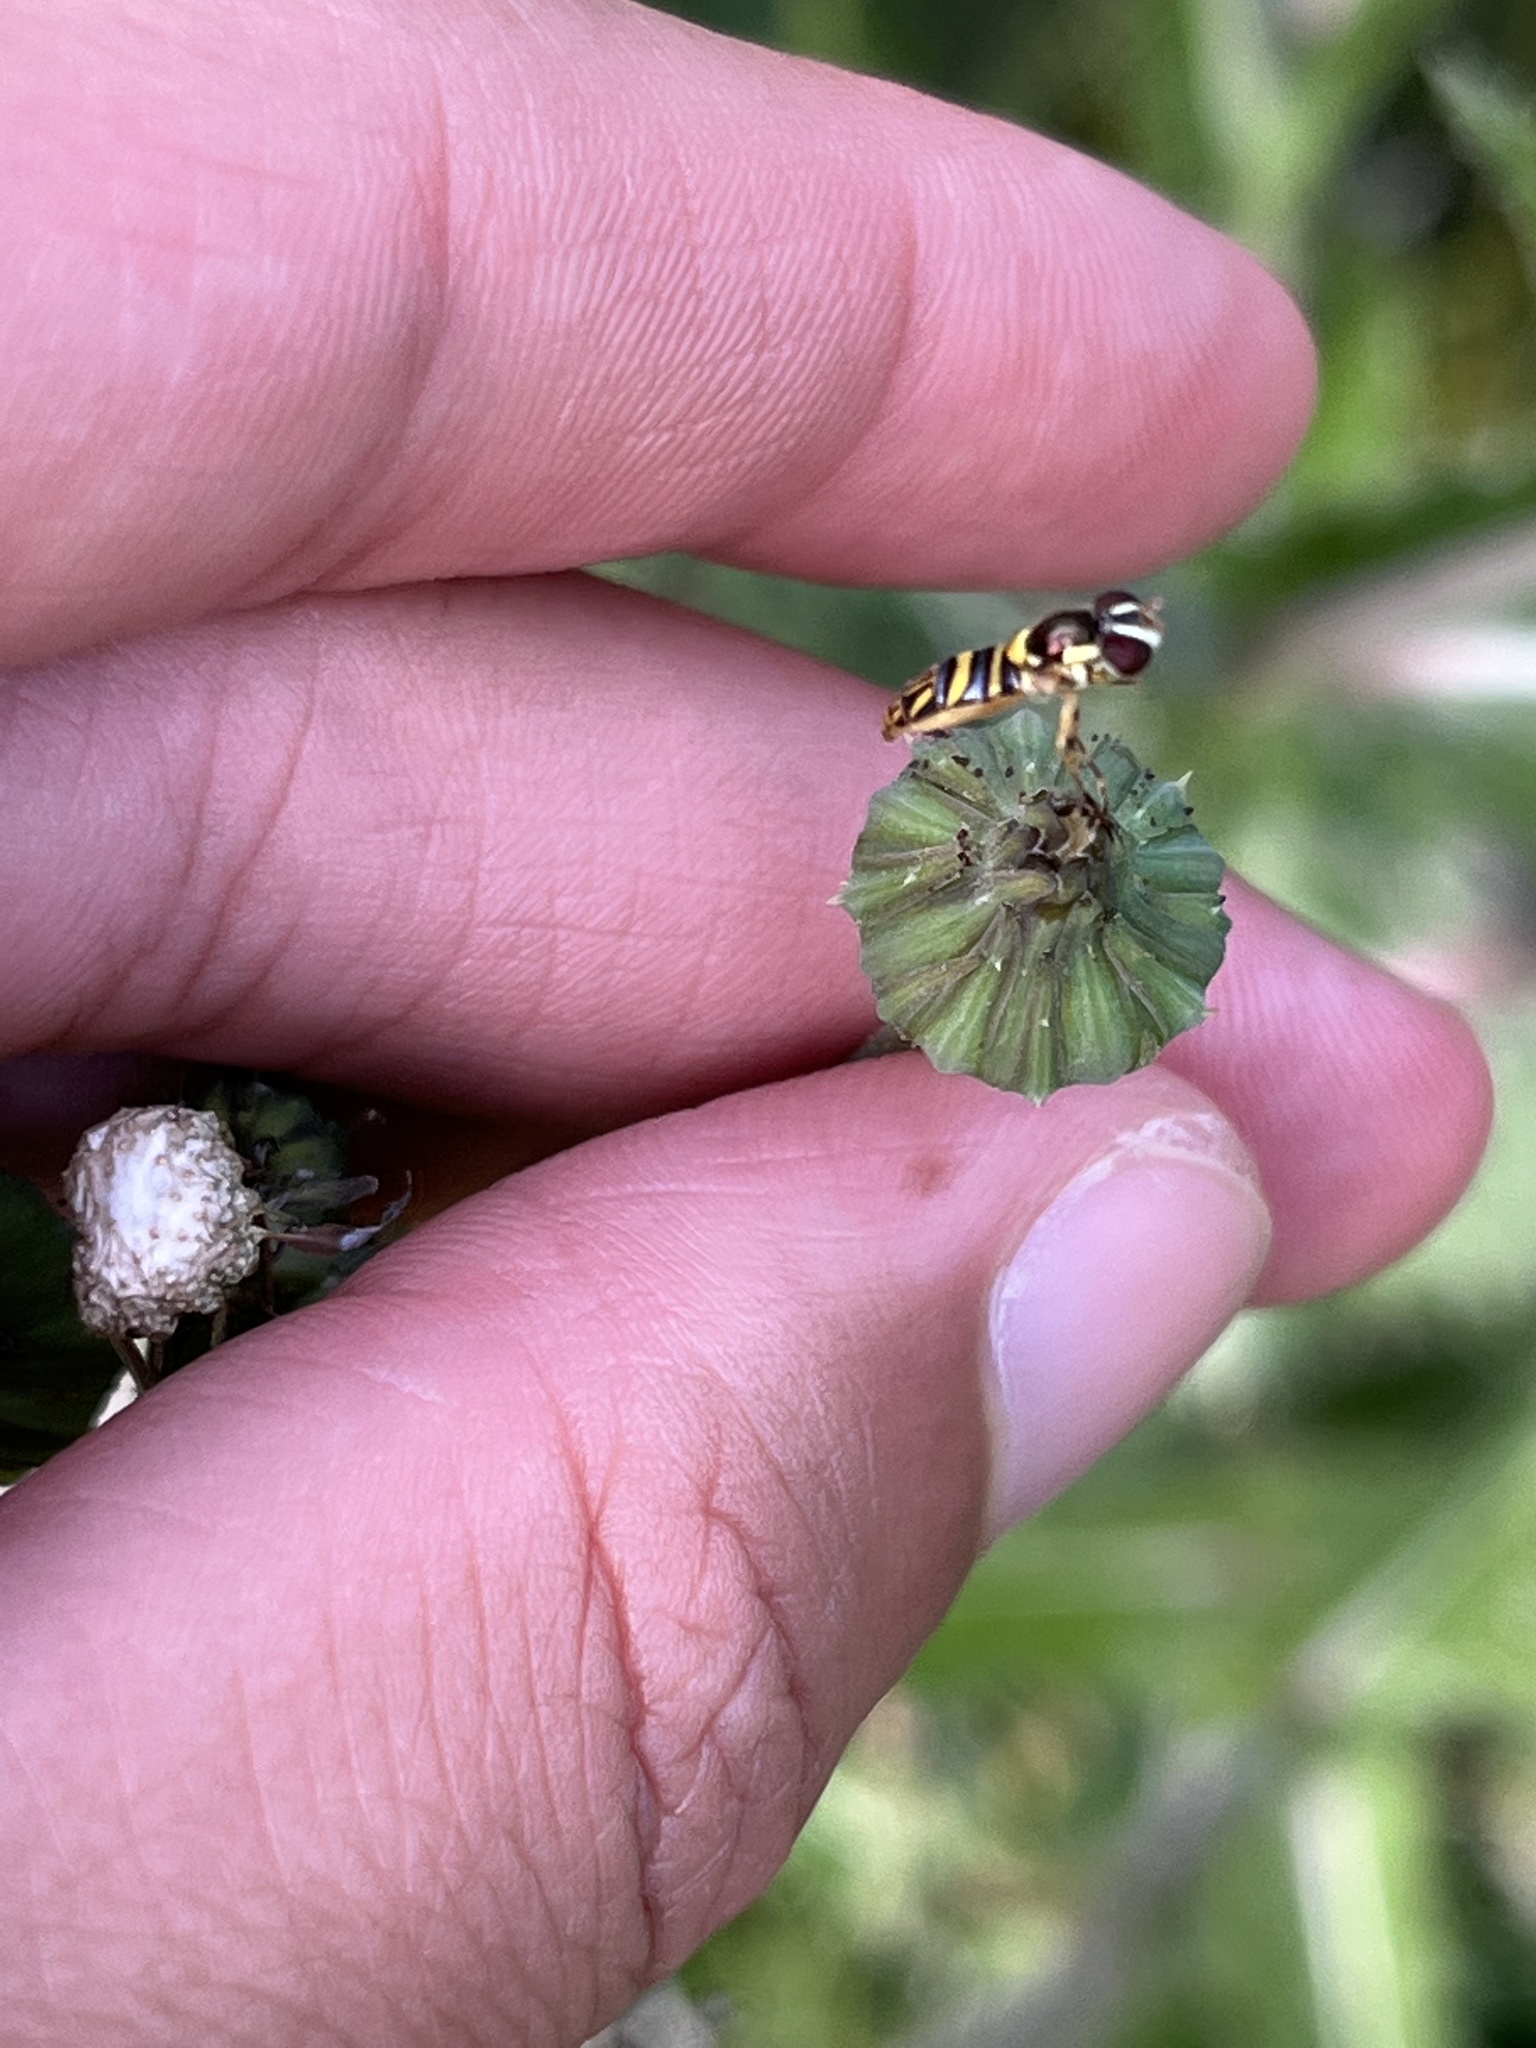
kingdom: Animalia
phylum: Arthropoda
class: Insecta
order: Diptera
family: Syrphidae
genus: Allograpta
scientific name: Allograpta obliqua
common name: Common oblique syrphid
